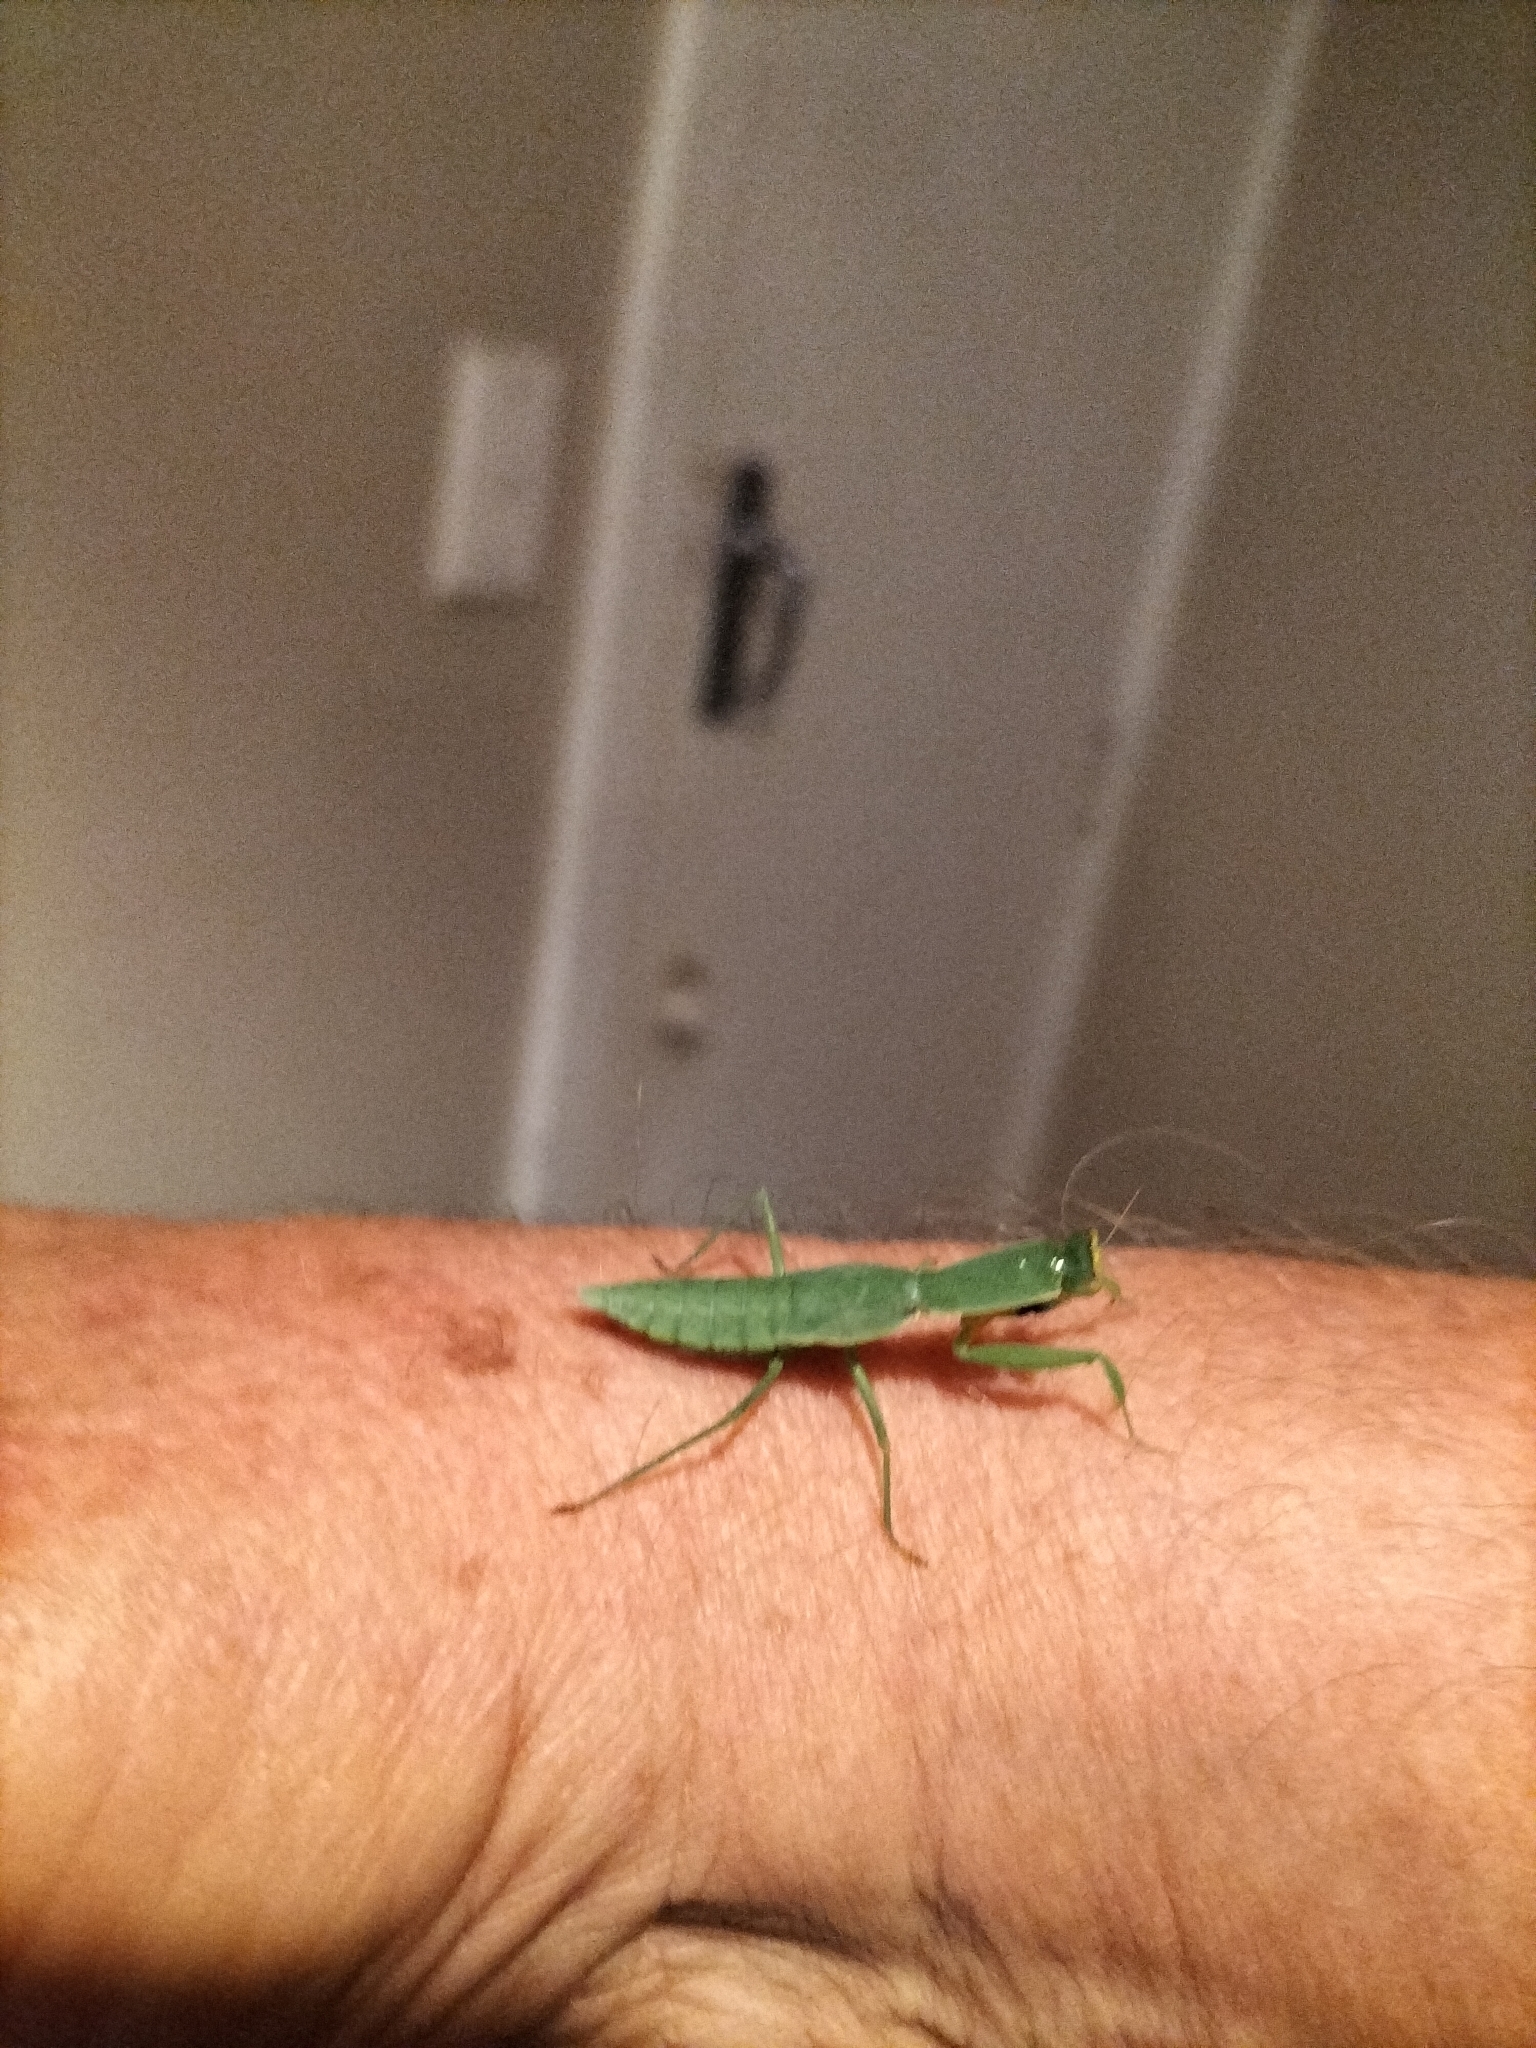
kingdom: Animalia
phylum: Arthropoda
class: Insecta
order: Mantodea
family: Mantidae
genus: Orthodera
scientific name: Orthodera novaezealandiae
